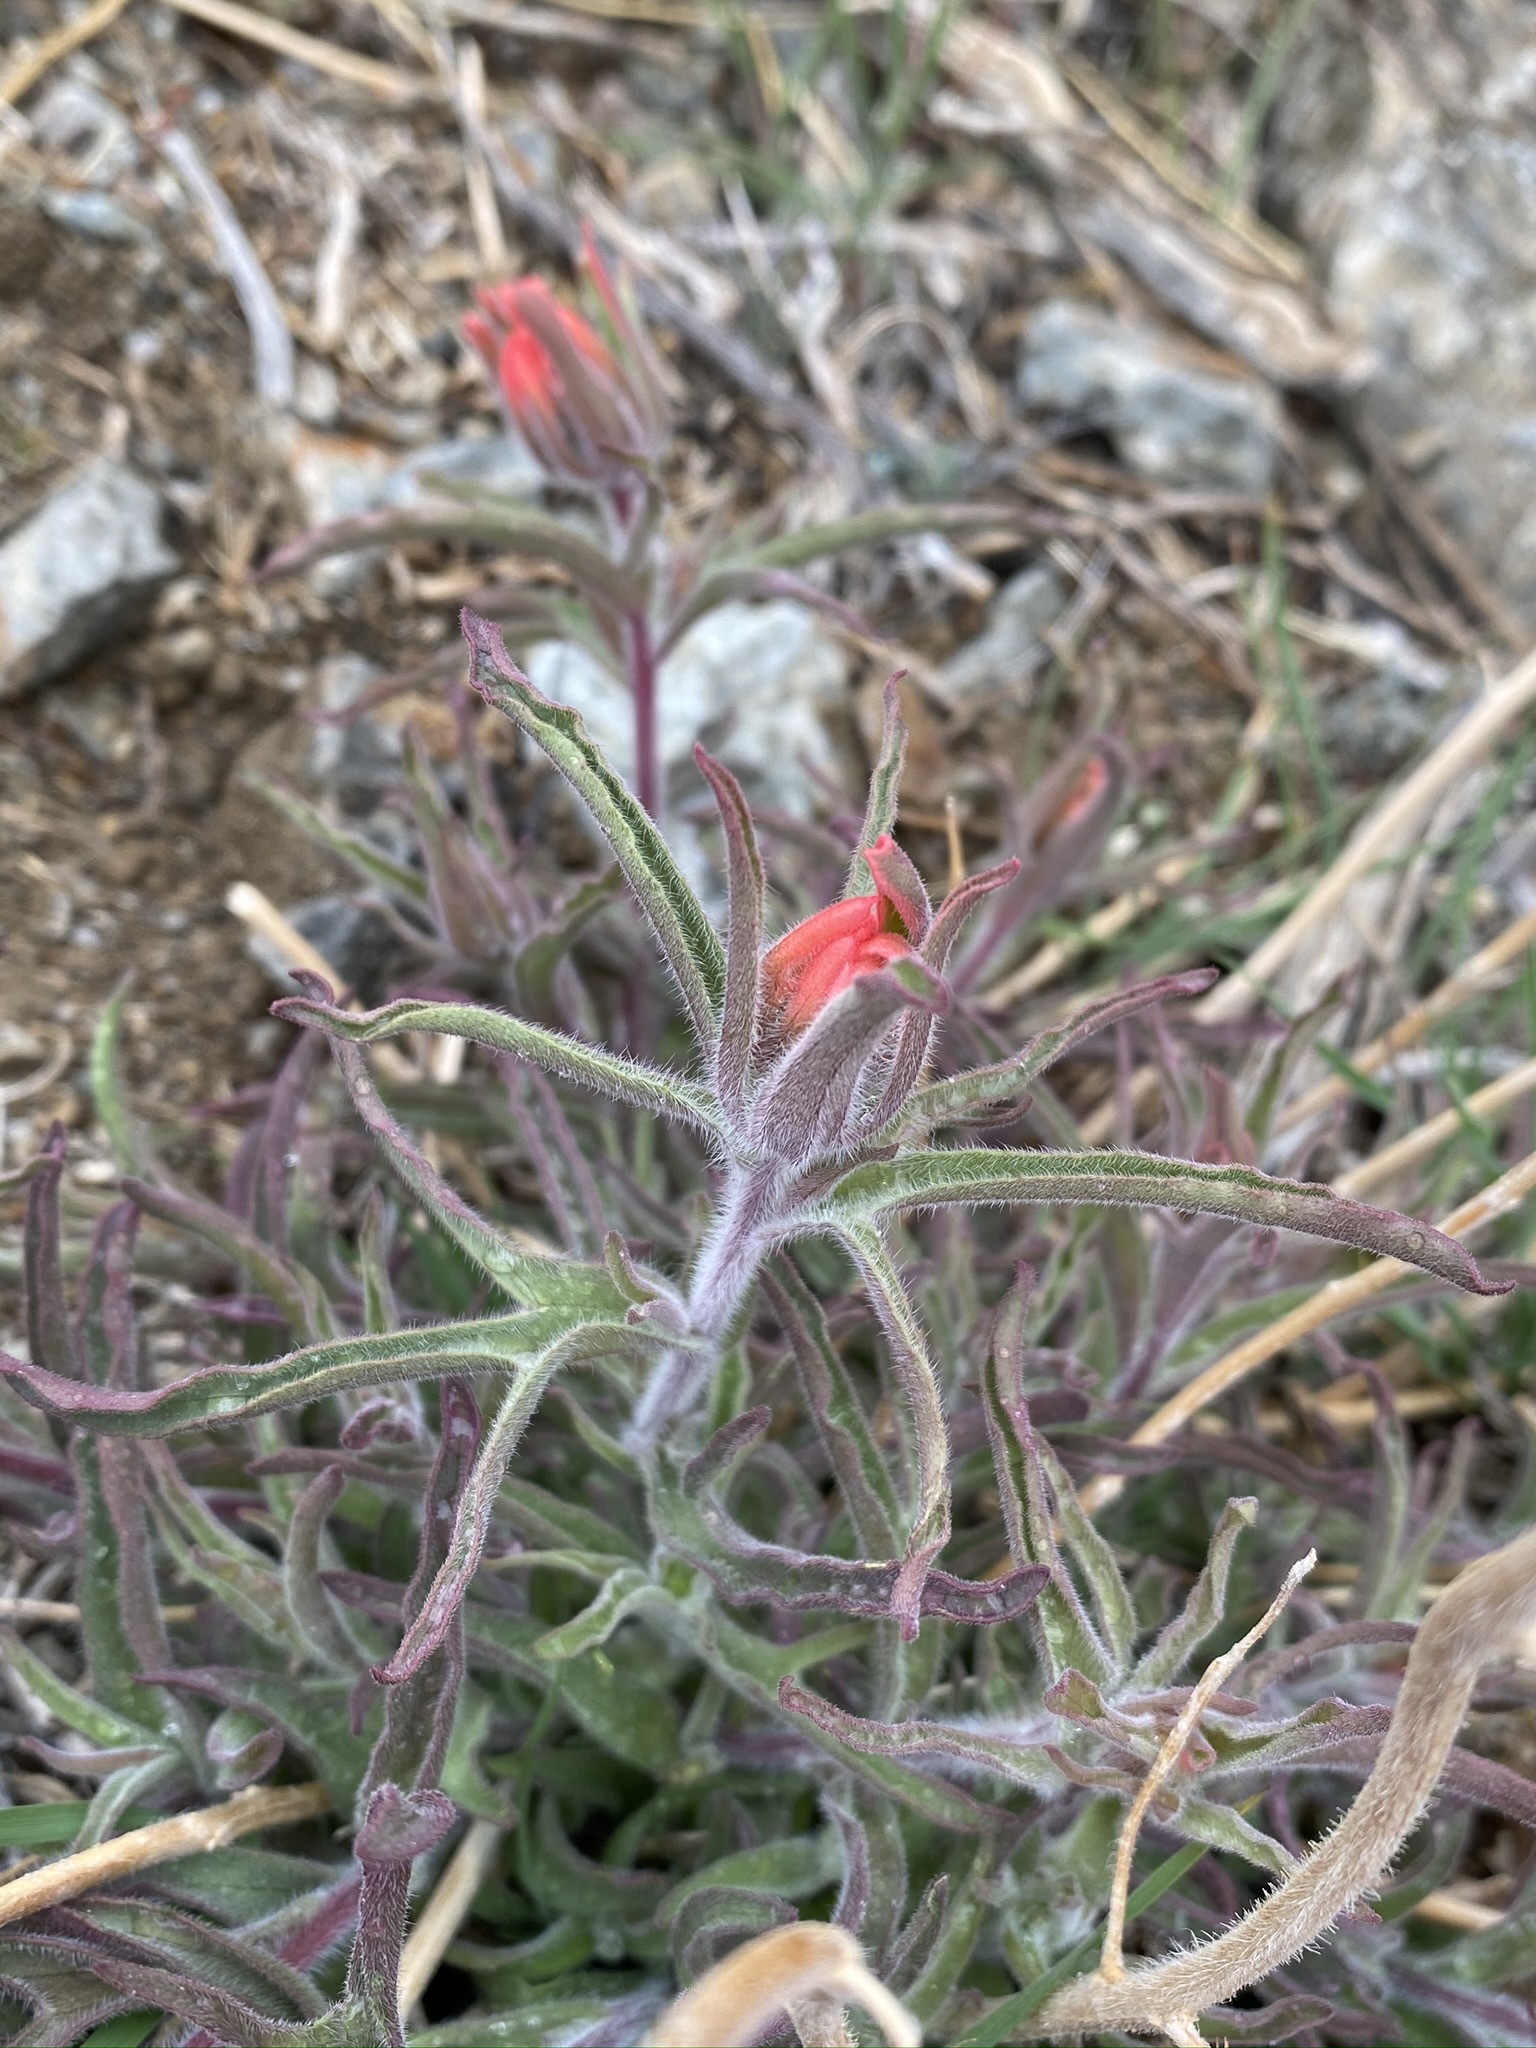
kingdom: Plantae
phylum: Tracheophyta
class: Magnoliopsida
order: Lamiales
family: Orobanchaceae
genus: Castilleja
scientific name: Castilleja chromosa
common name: Desert paintbrush
